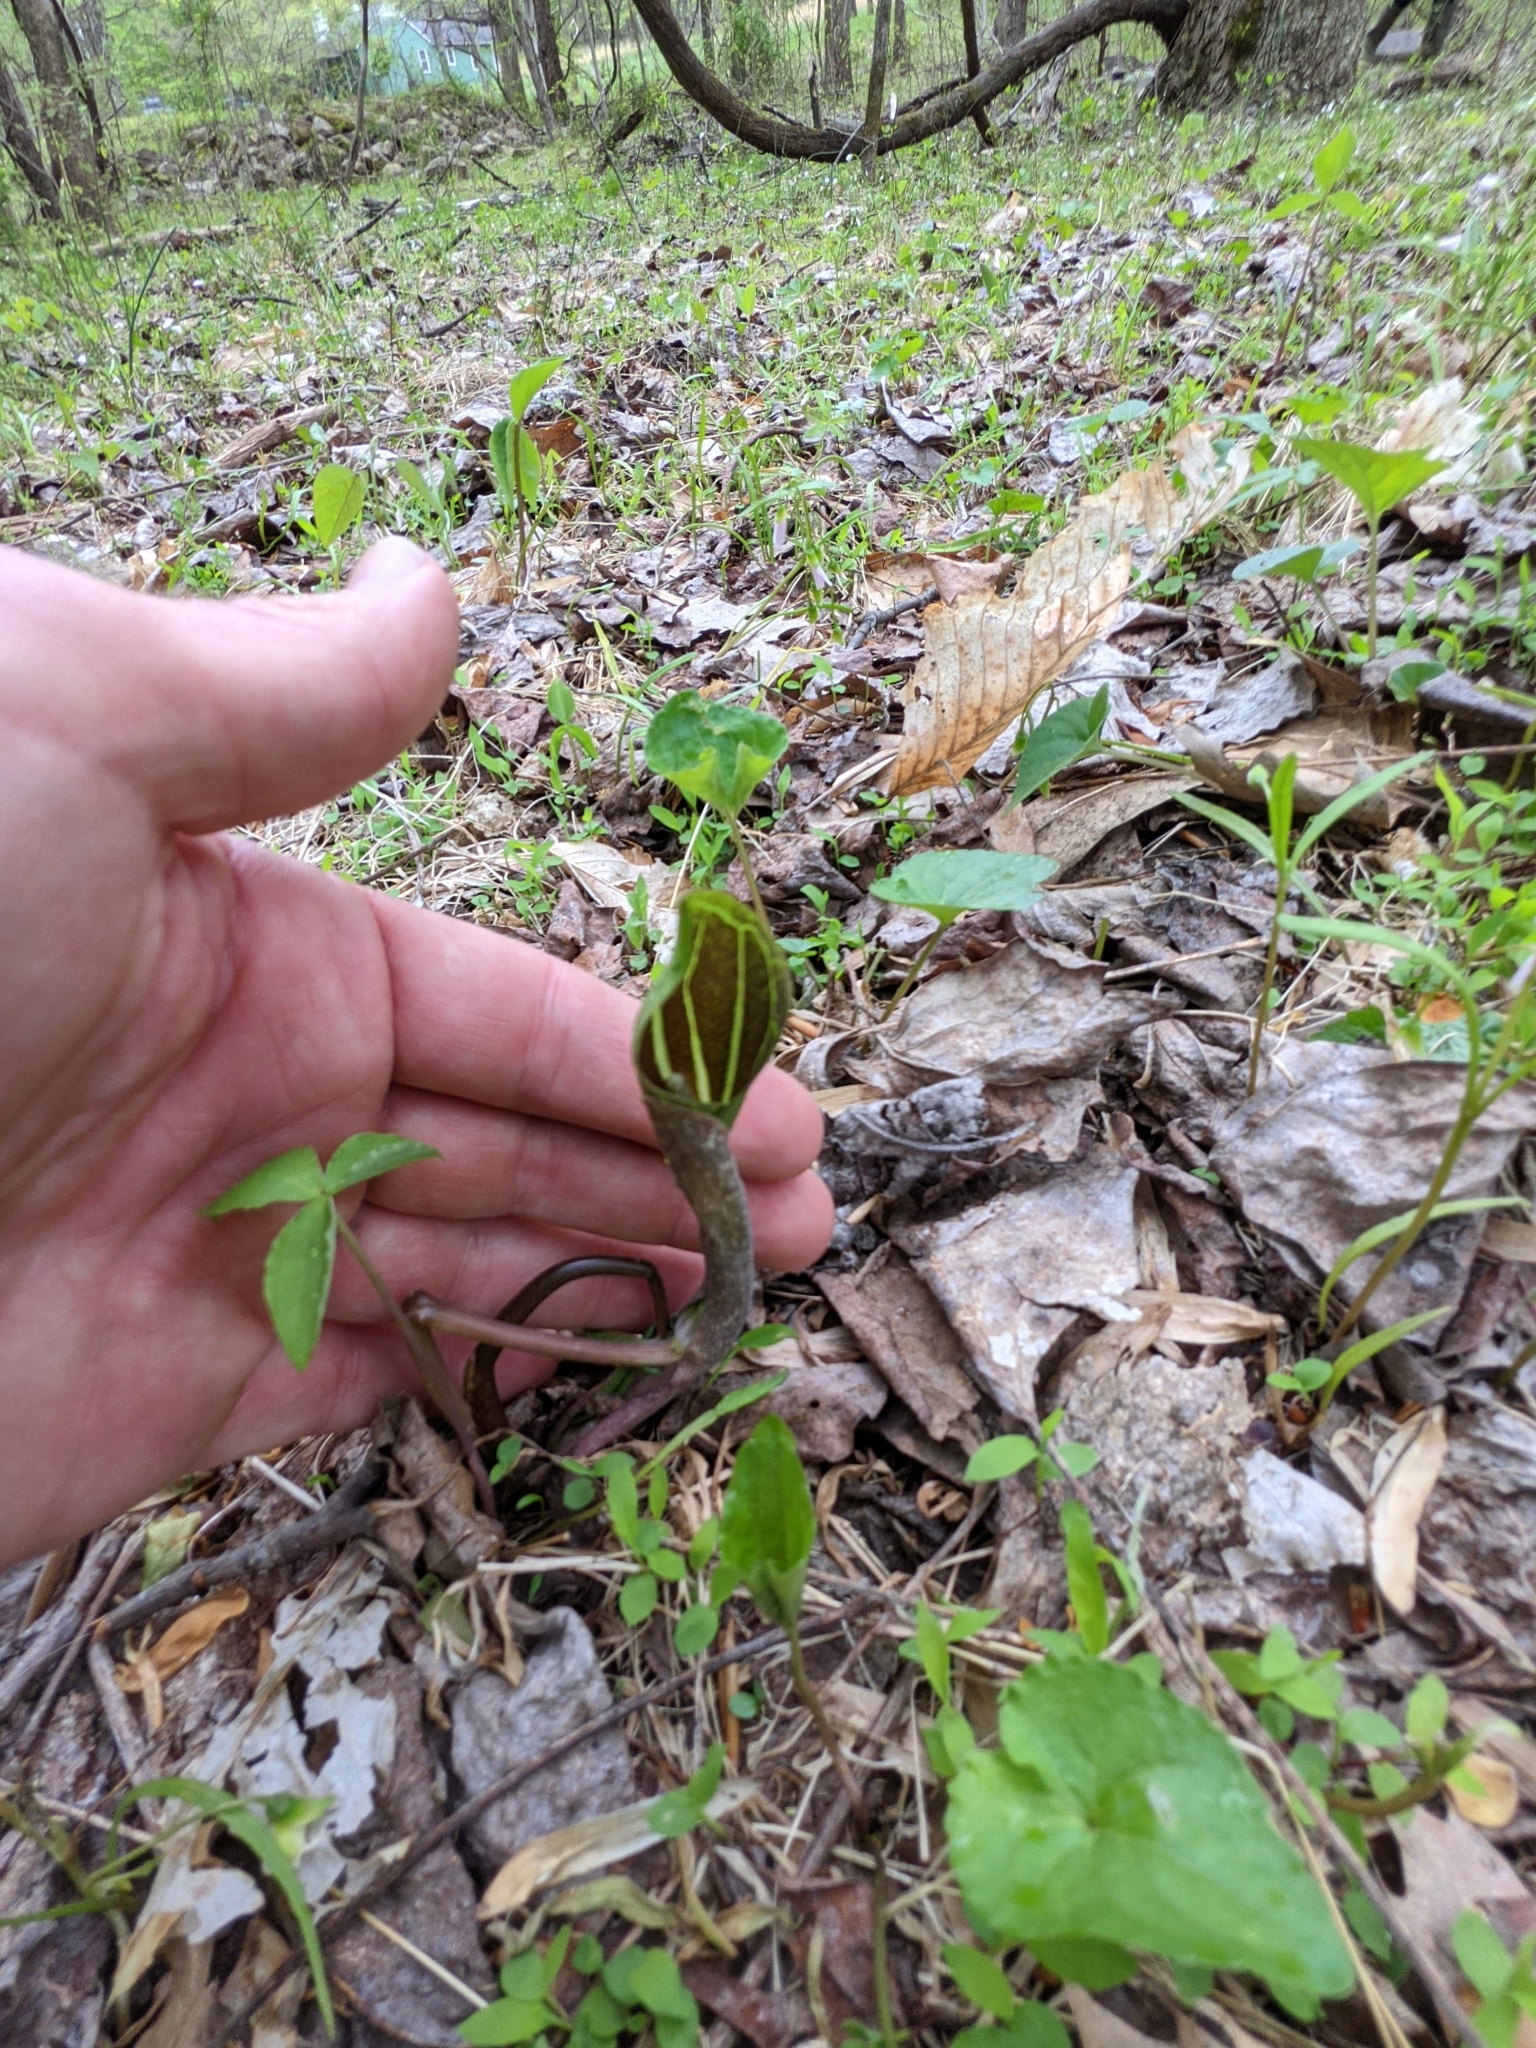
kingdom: Plantae
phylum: Tracheophyta
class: Liliopsida
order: Alismatales
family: Araceae
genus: Arisaema
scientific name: Arisaema triphyllum
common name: Jack-in-the-pulpit
